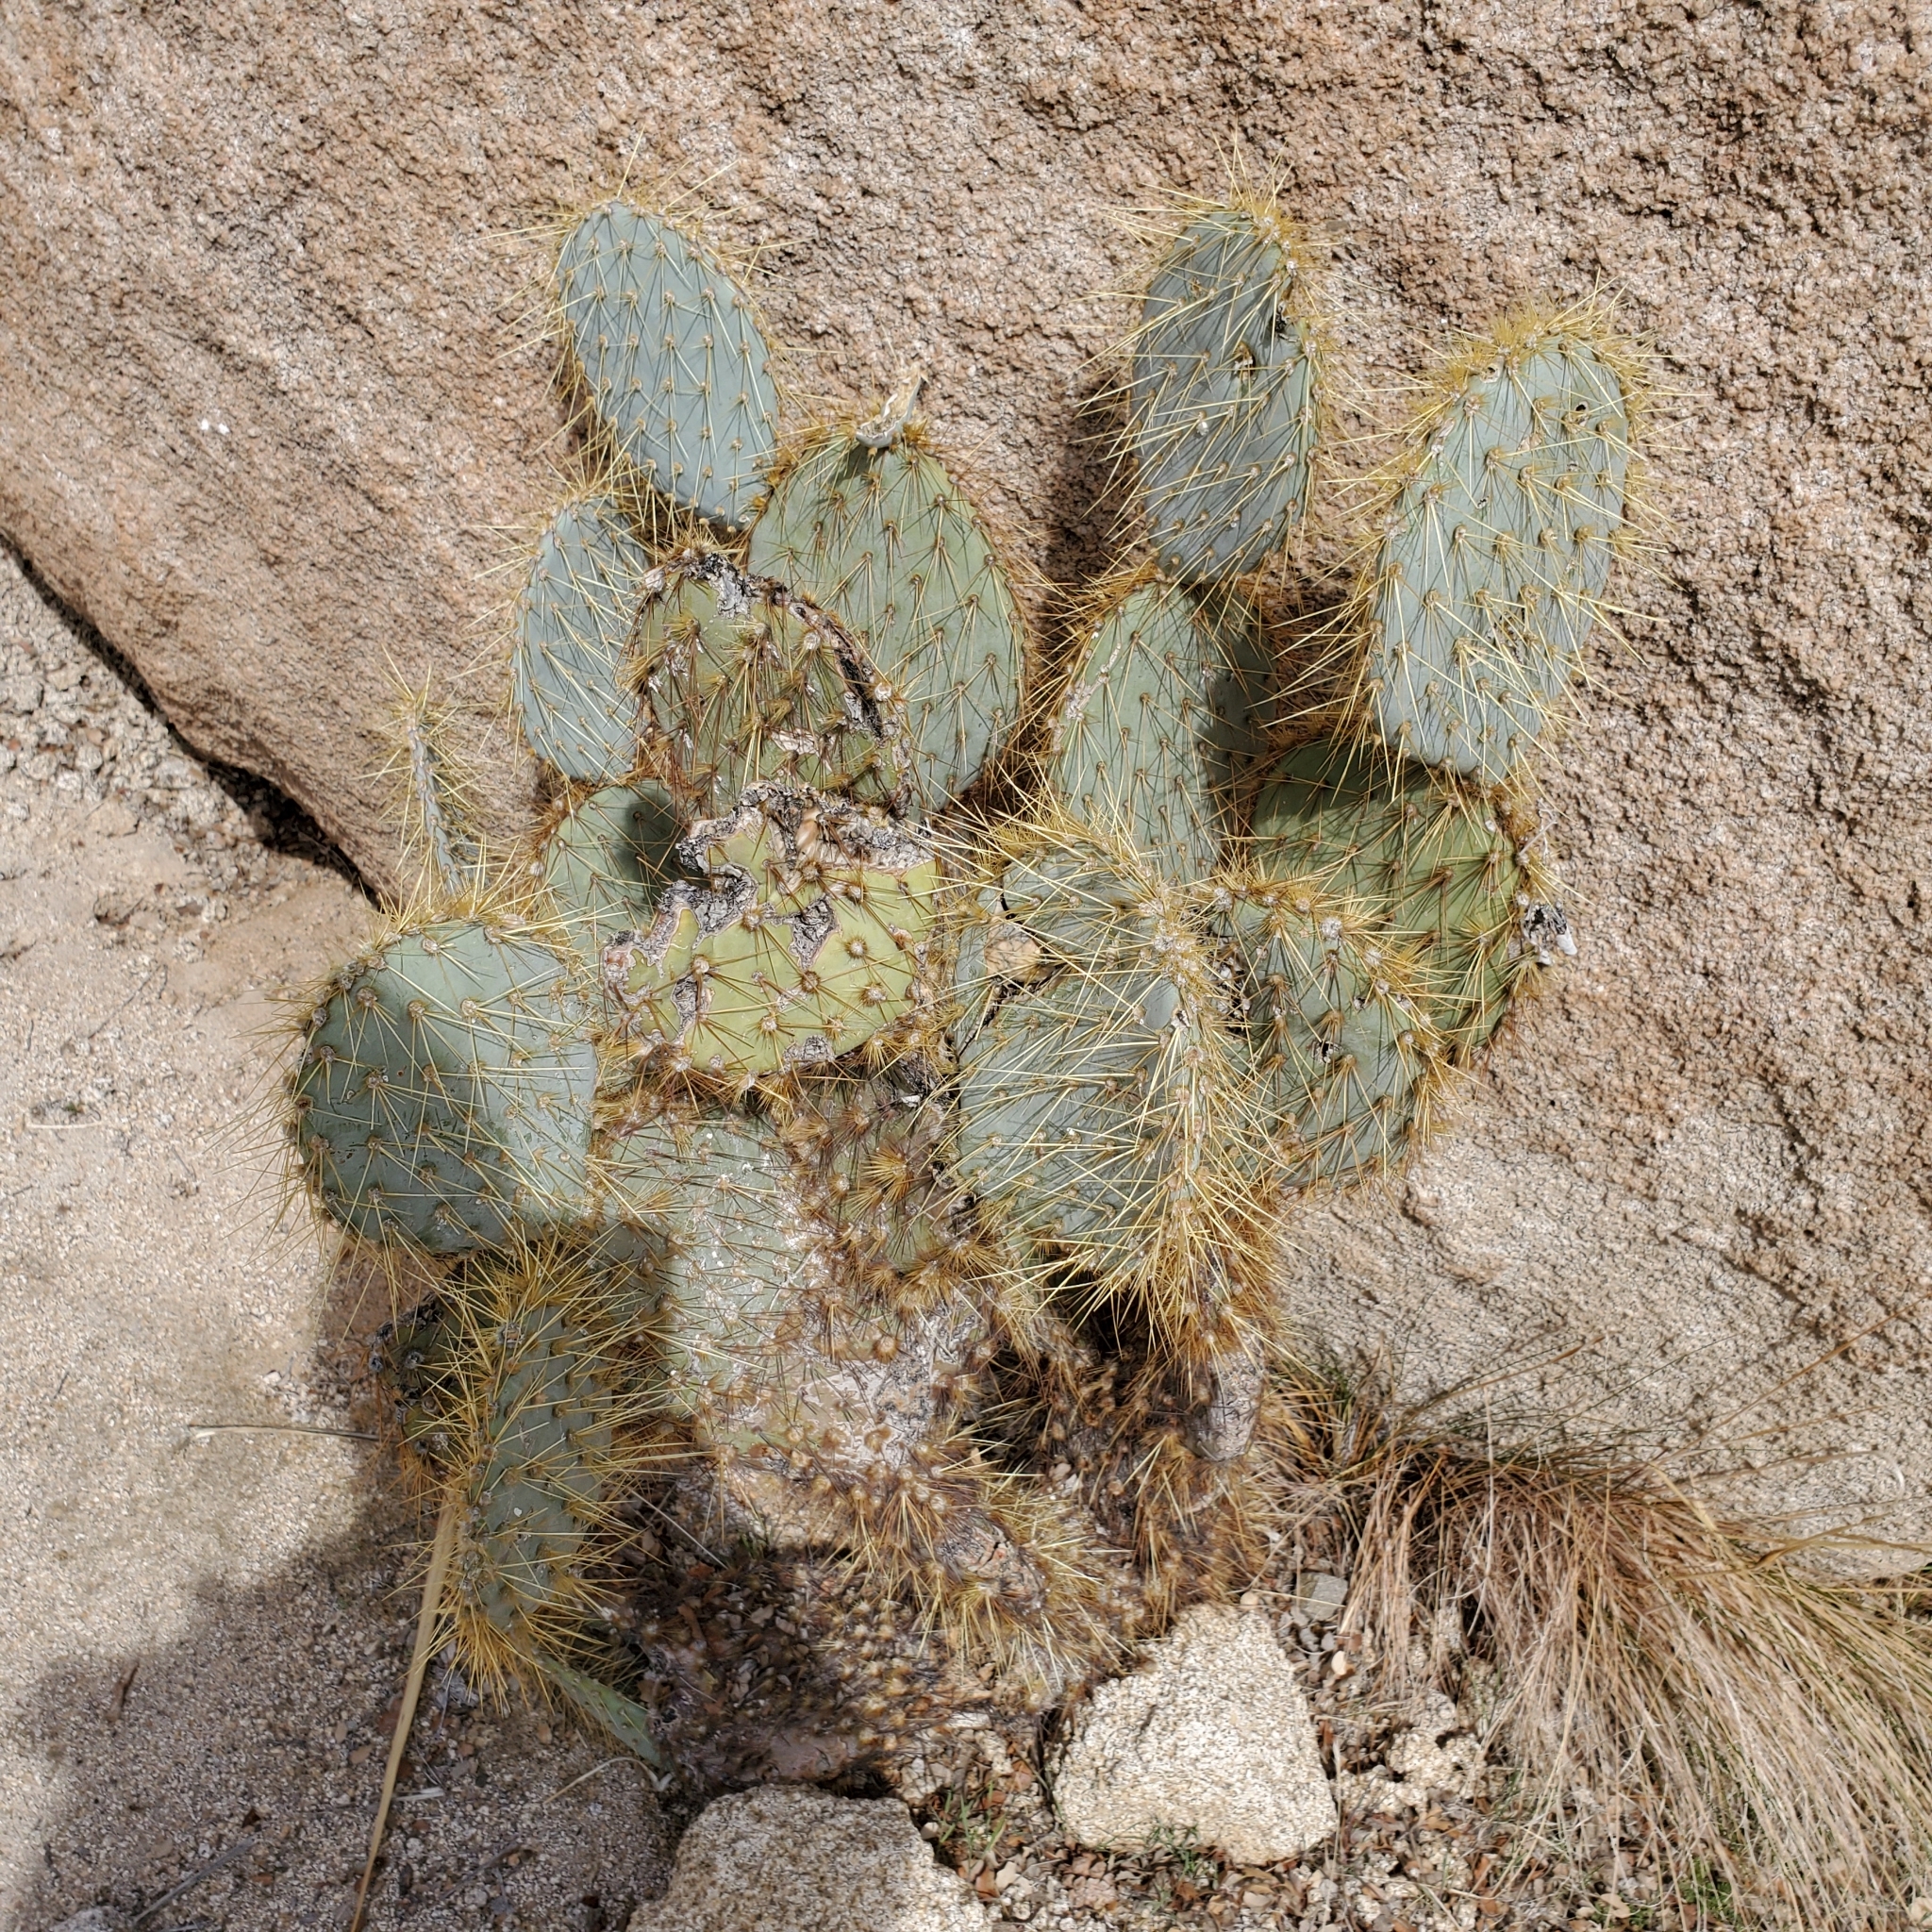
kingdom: Plantae
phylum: Tracheophyta
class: Magnoliopsida
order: Caryophyllales
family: Cactaceae
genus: Opuntia
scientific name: Opuntia chlorotica
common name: Dollar-joint prickly-pear
